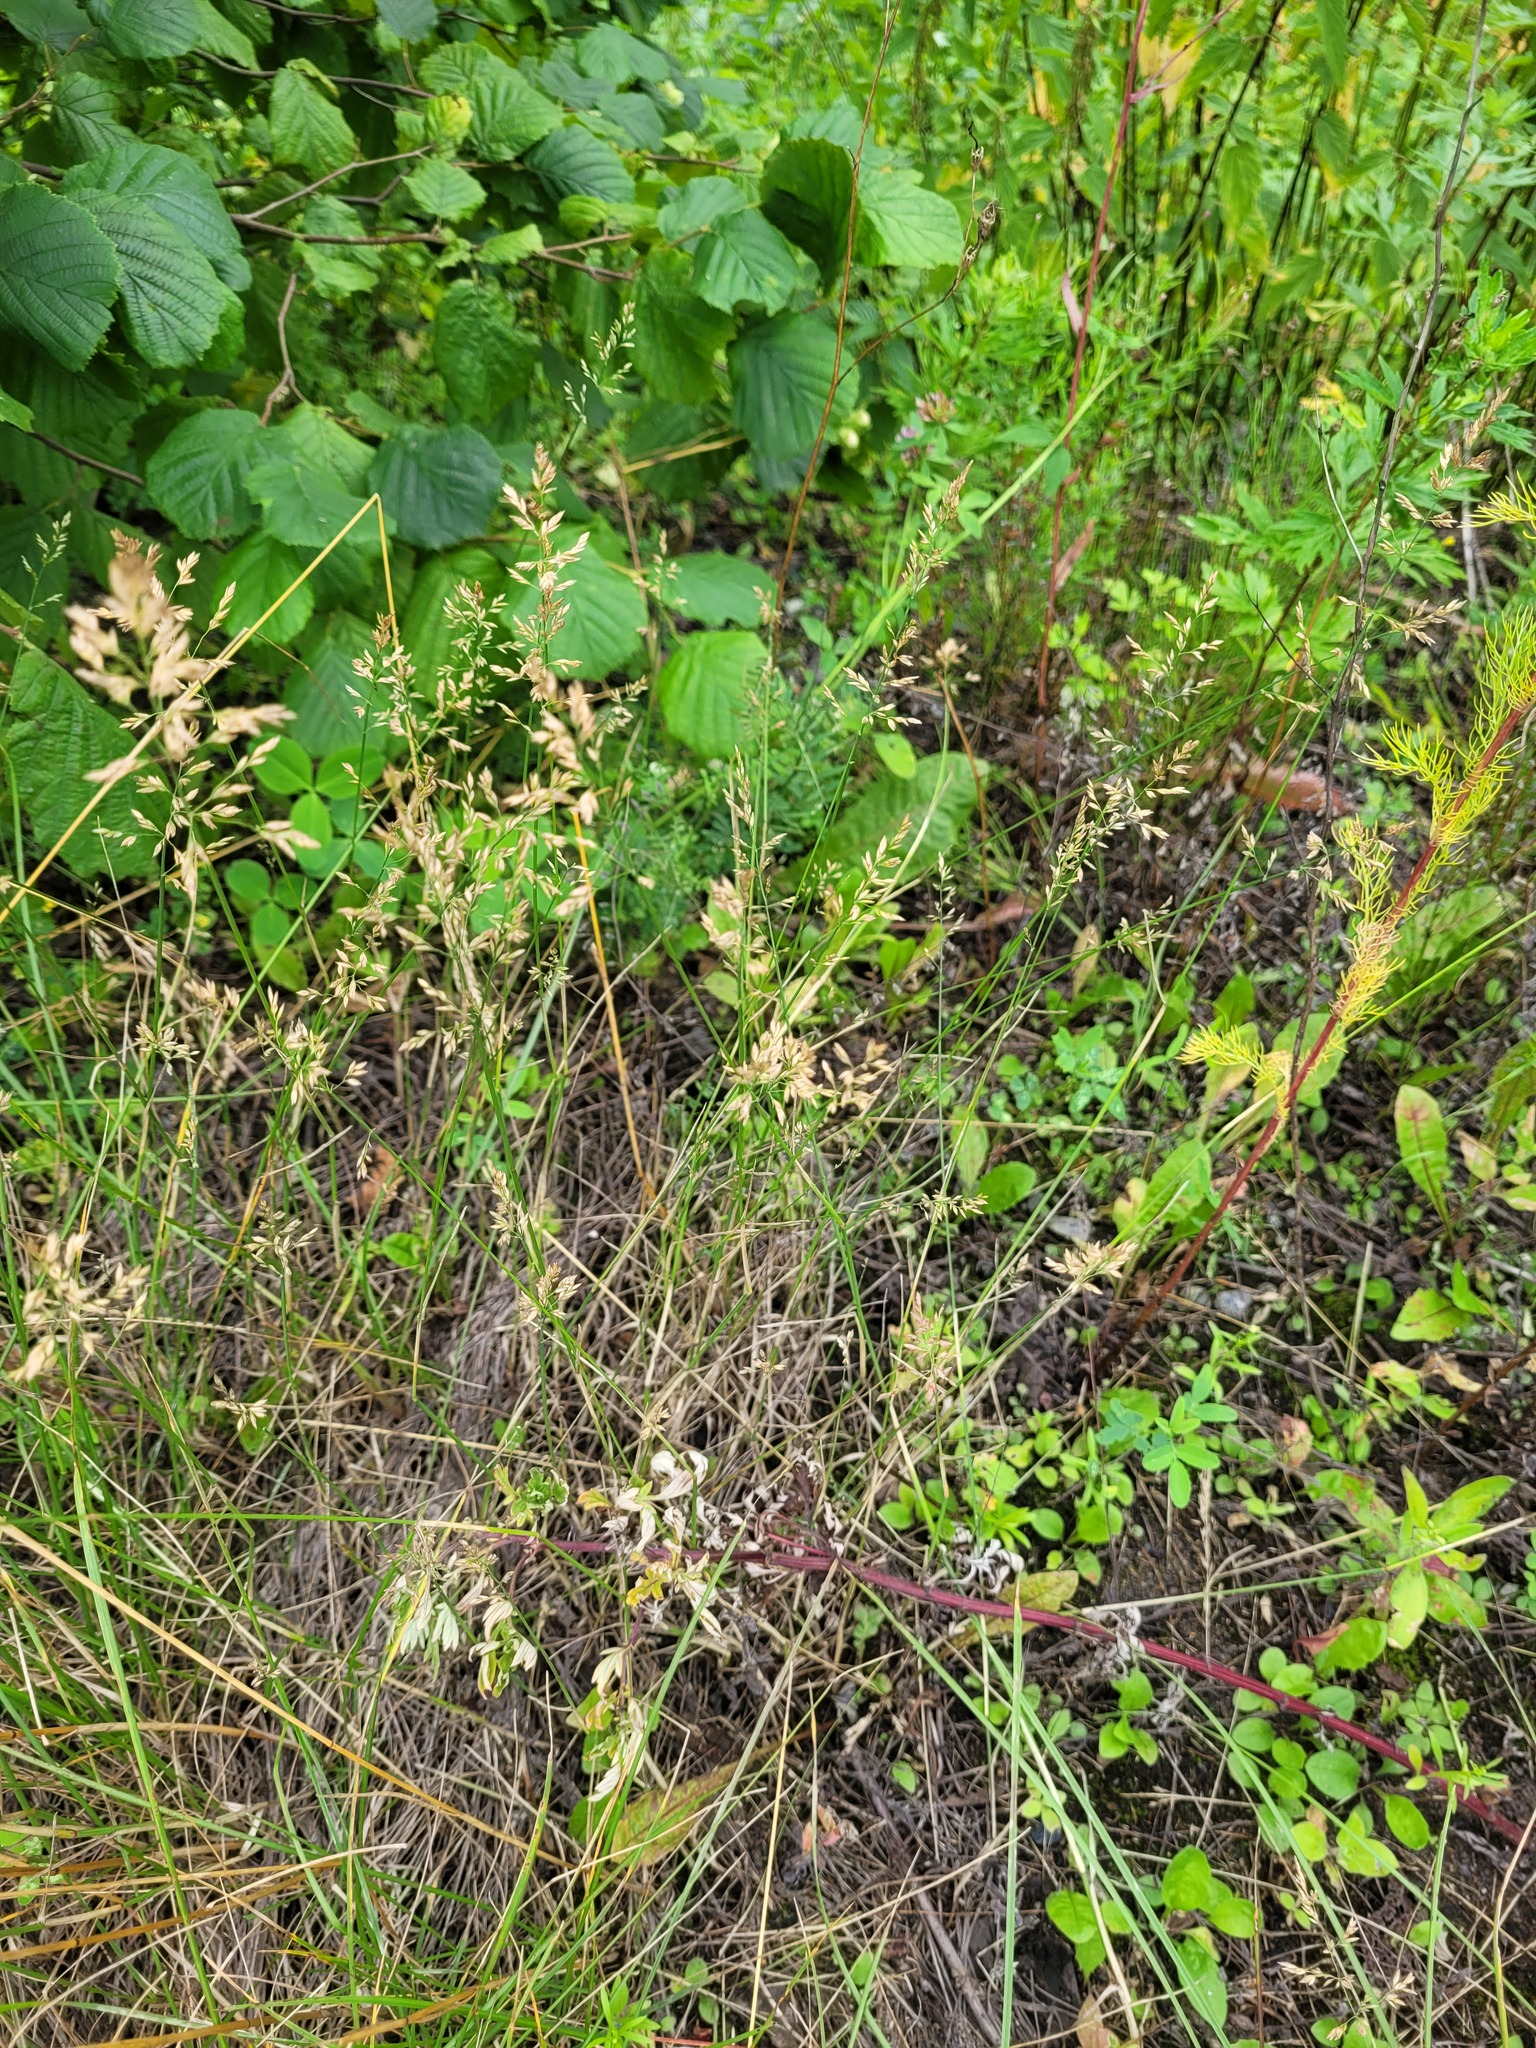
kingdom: Plantae
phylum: Tracheophyta
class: Liliopsida
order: Poales
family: Poaceae
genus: Poa
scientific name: Poa compressa
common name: Canada bluegrass
